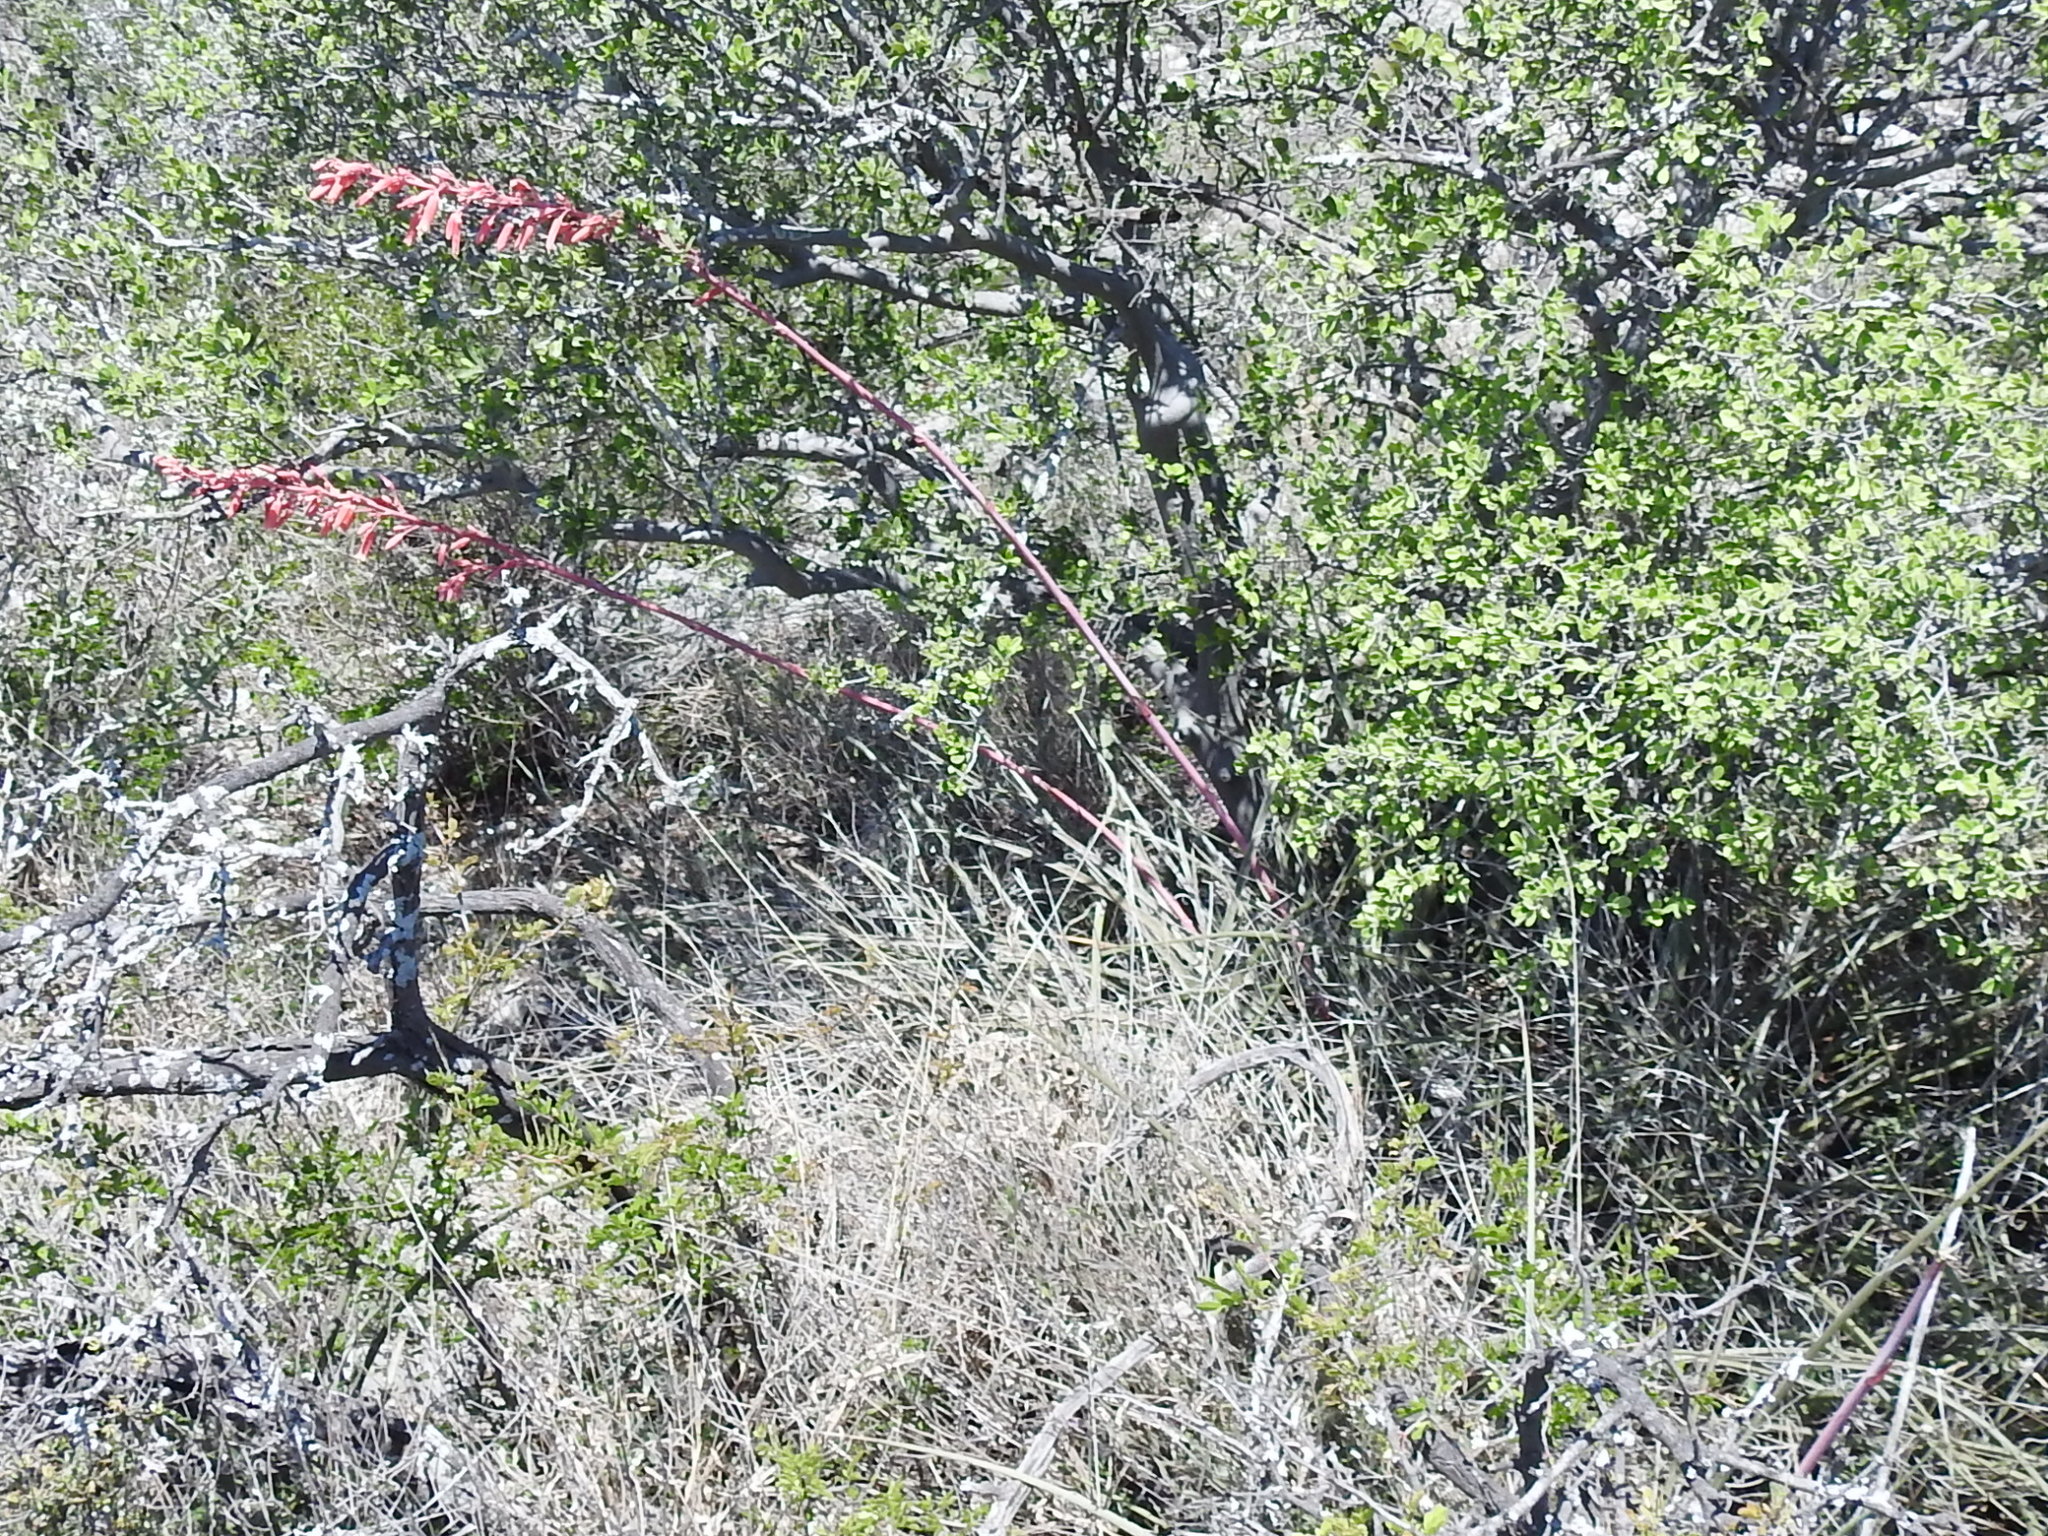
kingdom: Plantae
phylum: Tracheophyta
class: Liliopsida
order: Asparagales
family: Asparagaceae
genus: Hesperaloe
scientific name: Hesperaloe parviflora
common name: Red hesperaloe
